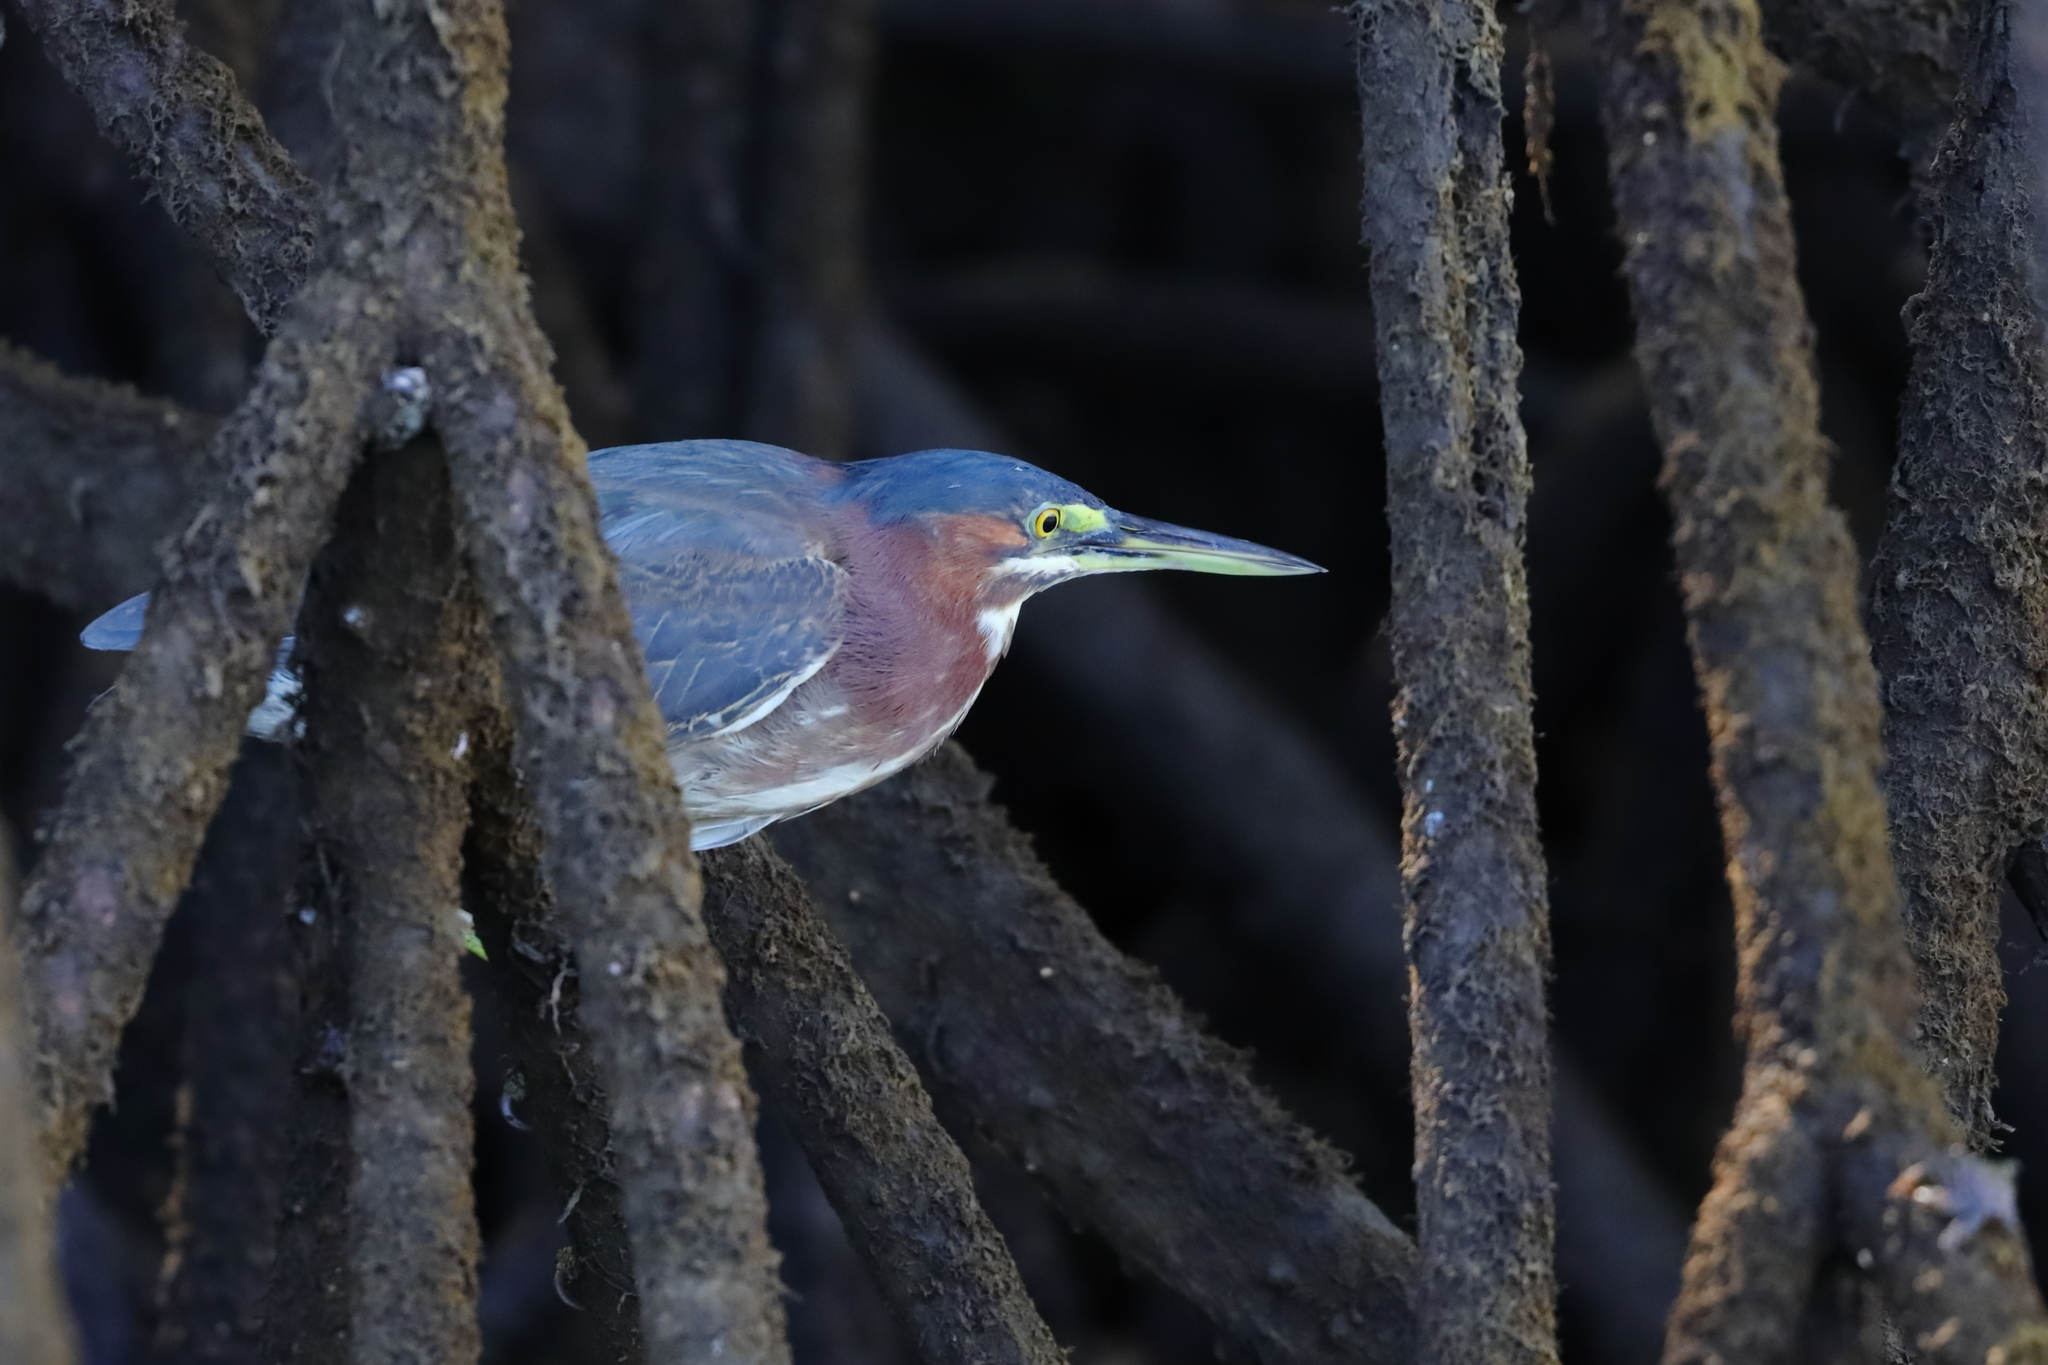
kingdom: Animalia
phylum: Chordata
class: Aves
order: Pelecaniformes
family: Ardeidae
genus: Butorides
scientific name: Butorides virescens
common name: Green heron
